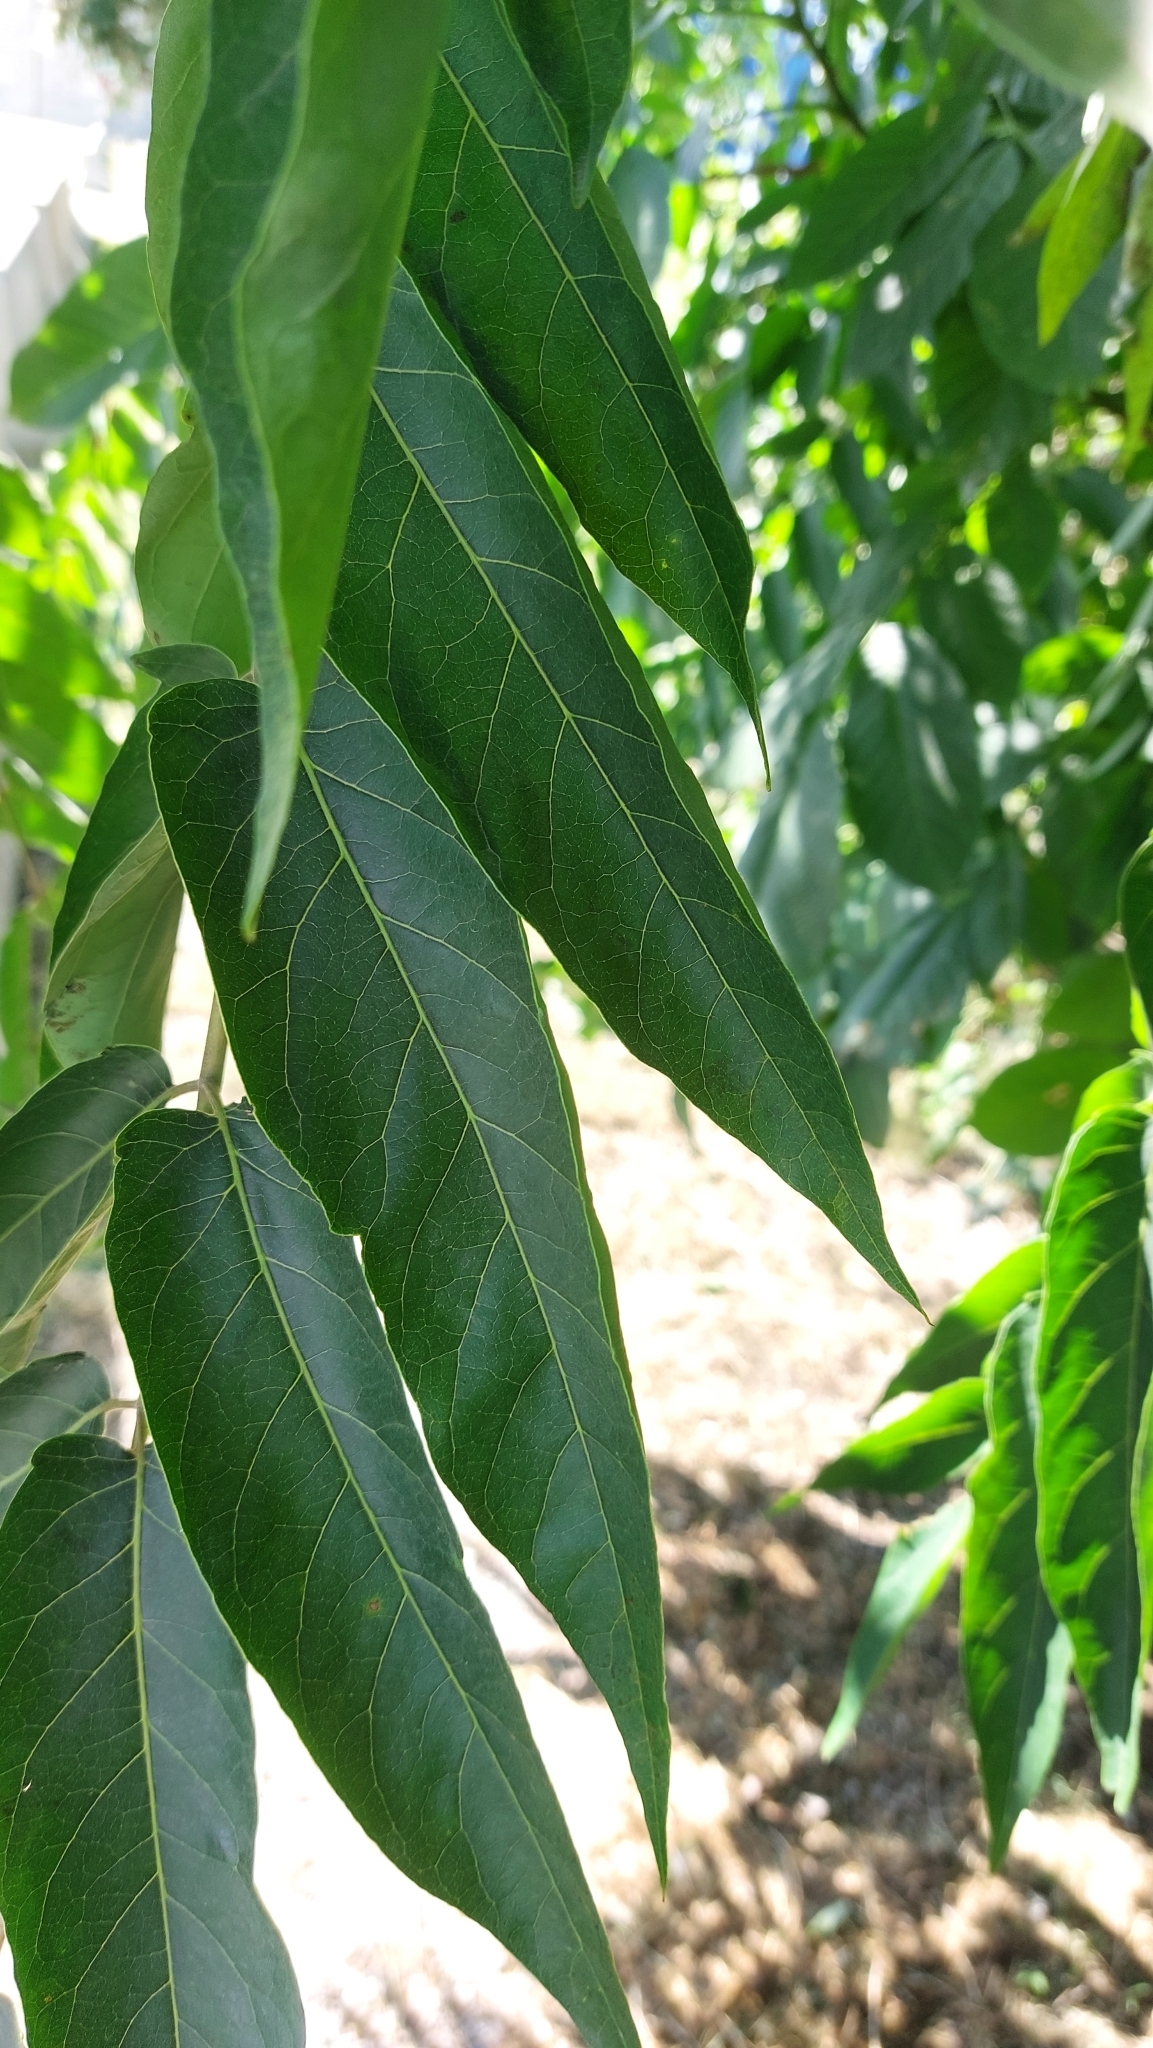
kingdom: Plantae
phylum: Tracheophyta
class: Magnoliopsida
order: Sapindales
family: Simaroubaceae
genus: Ailanthus
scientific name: Ailanthus altissima
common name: Tree-of-heaven
